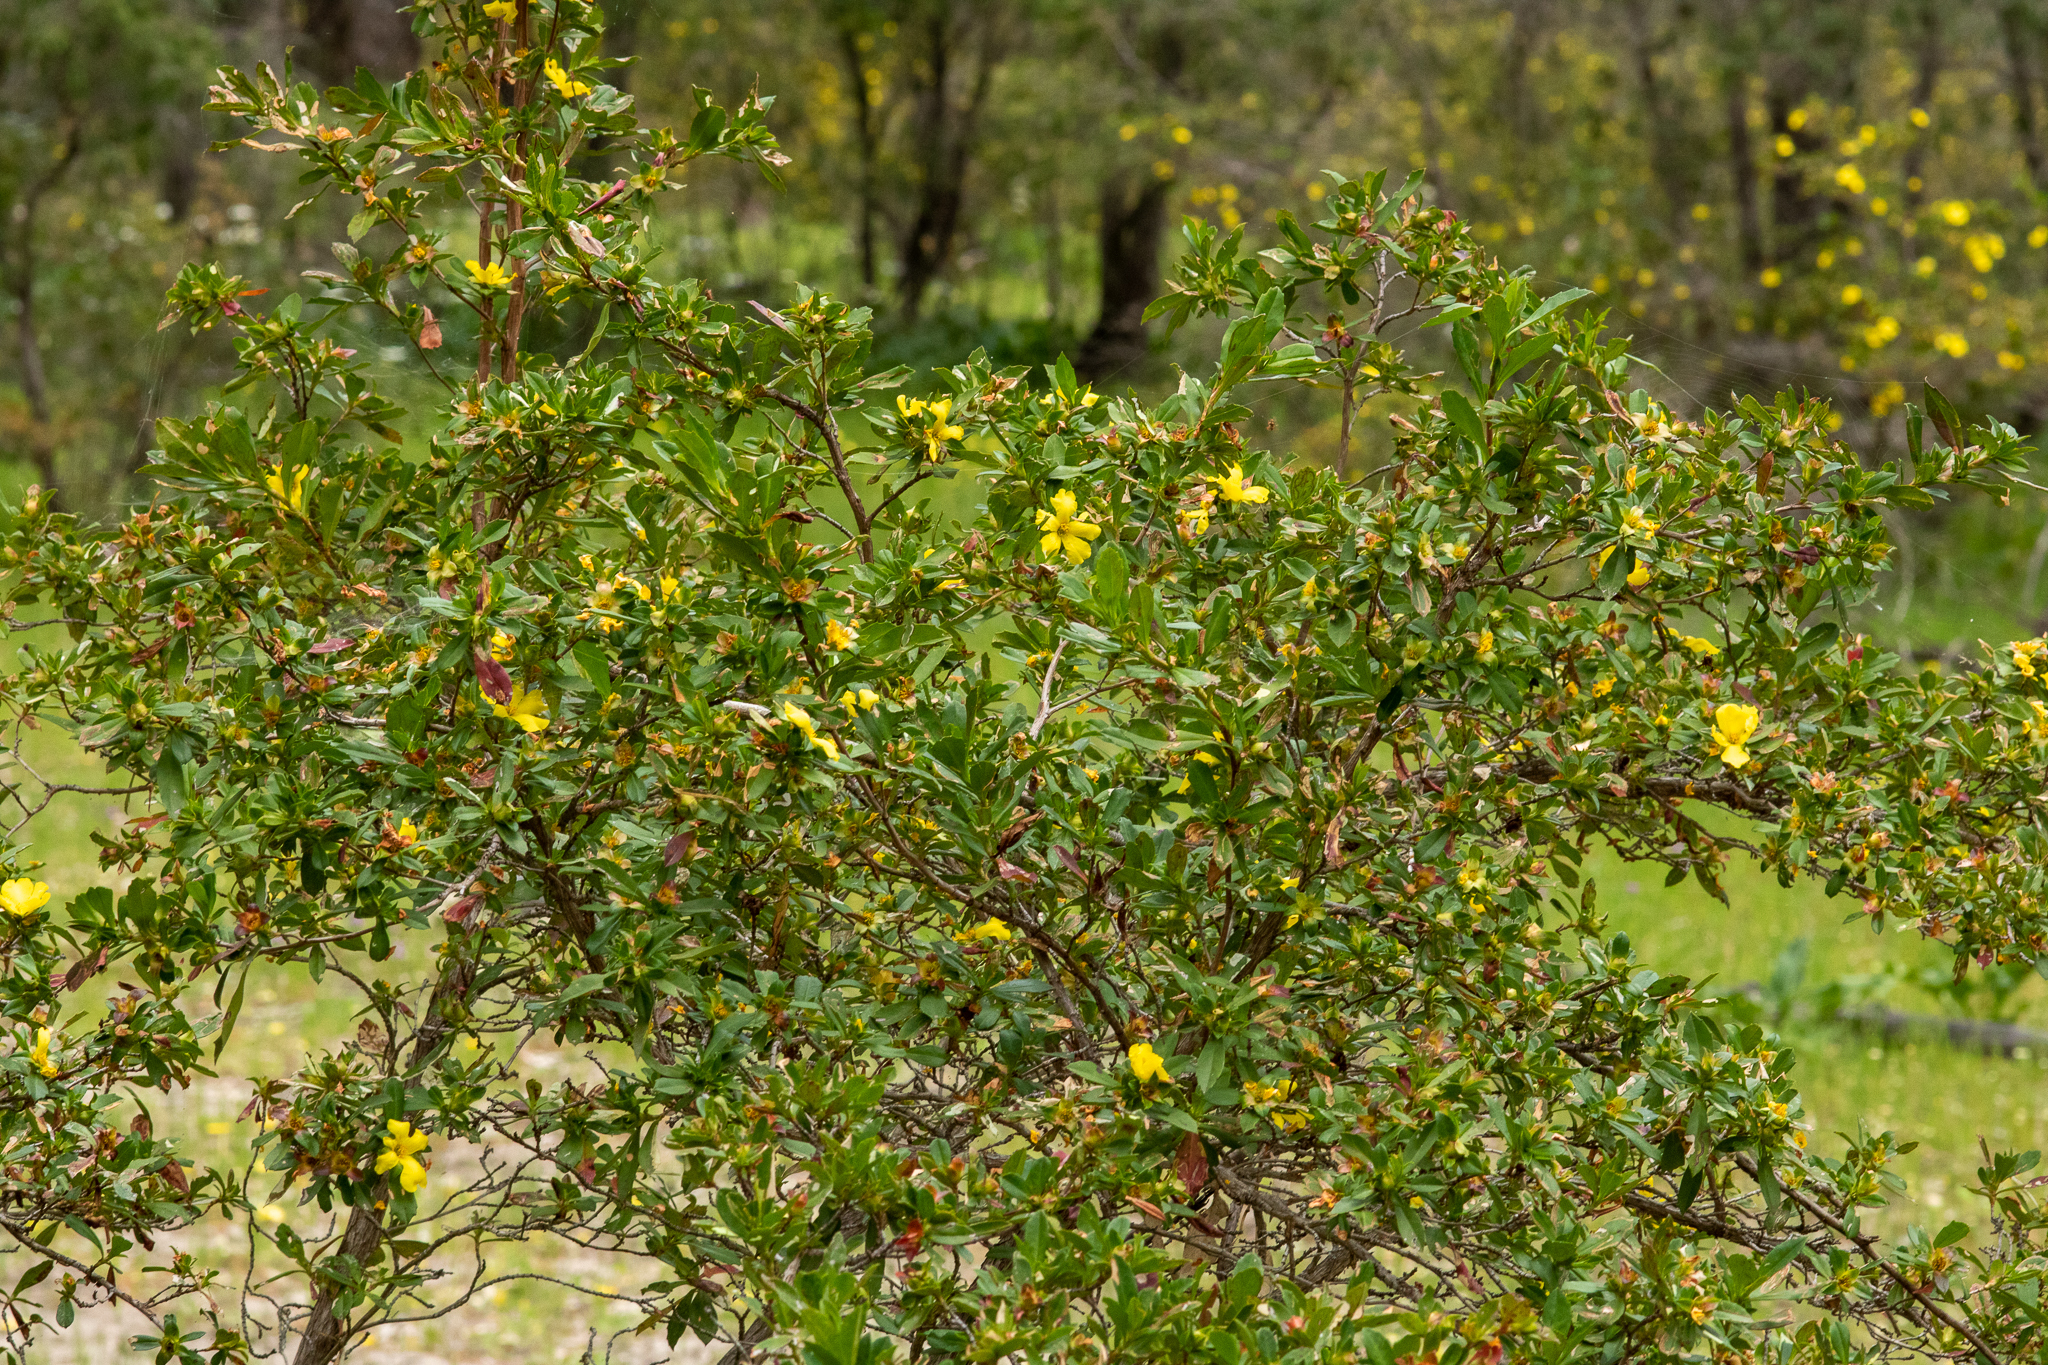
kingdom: Plantae
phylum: Tracheophyta
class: Magnoliopsida
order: Dilleniales
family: Dilleniaceae
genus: Hibbertia
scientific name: Hibbertia cuneiformis
